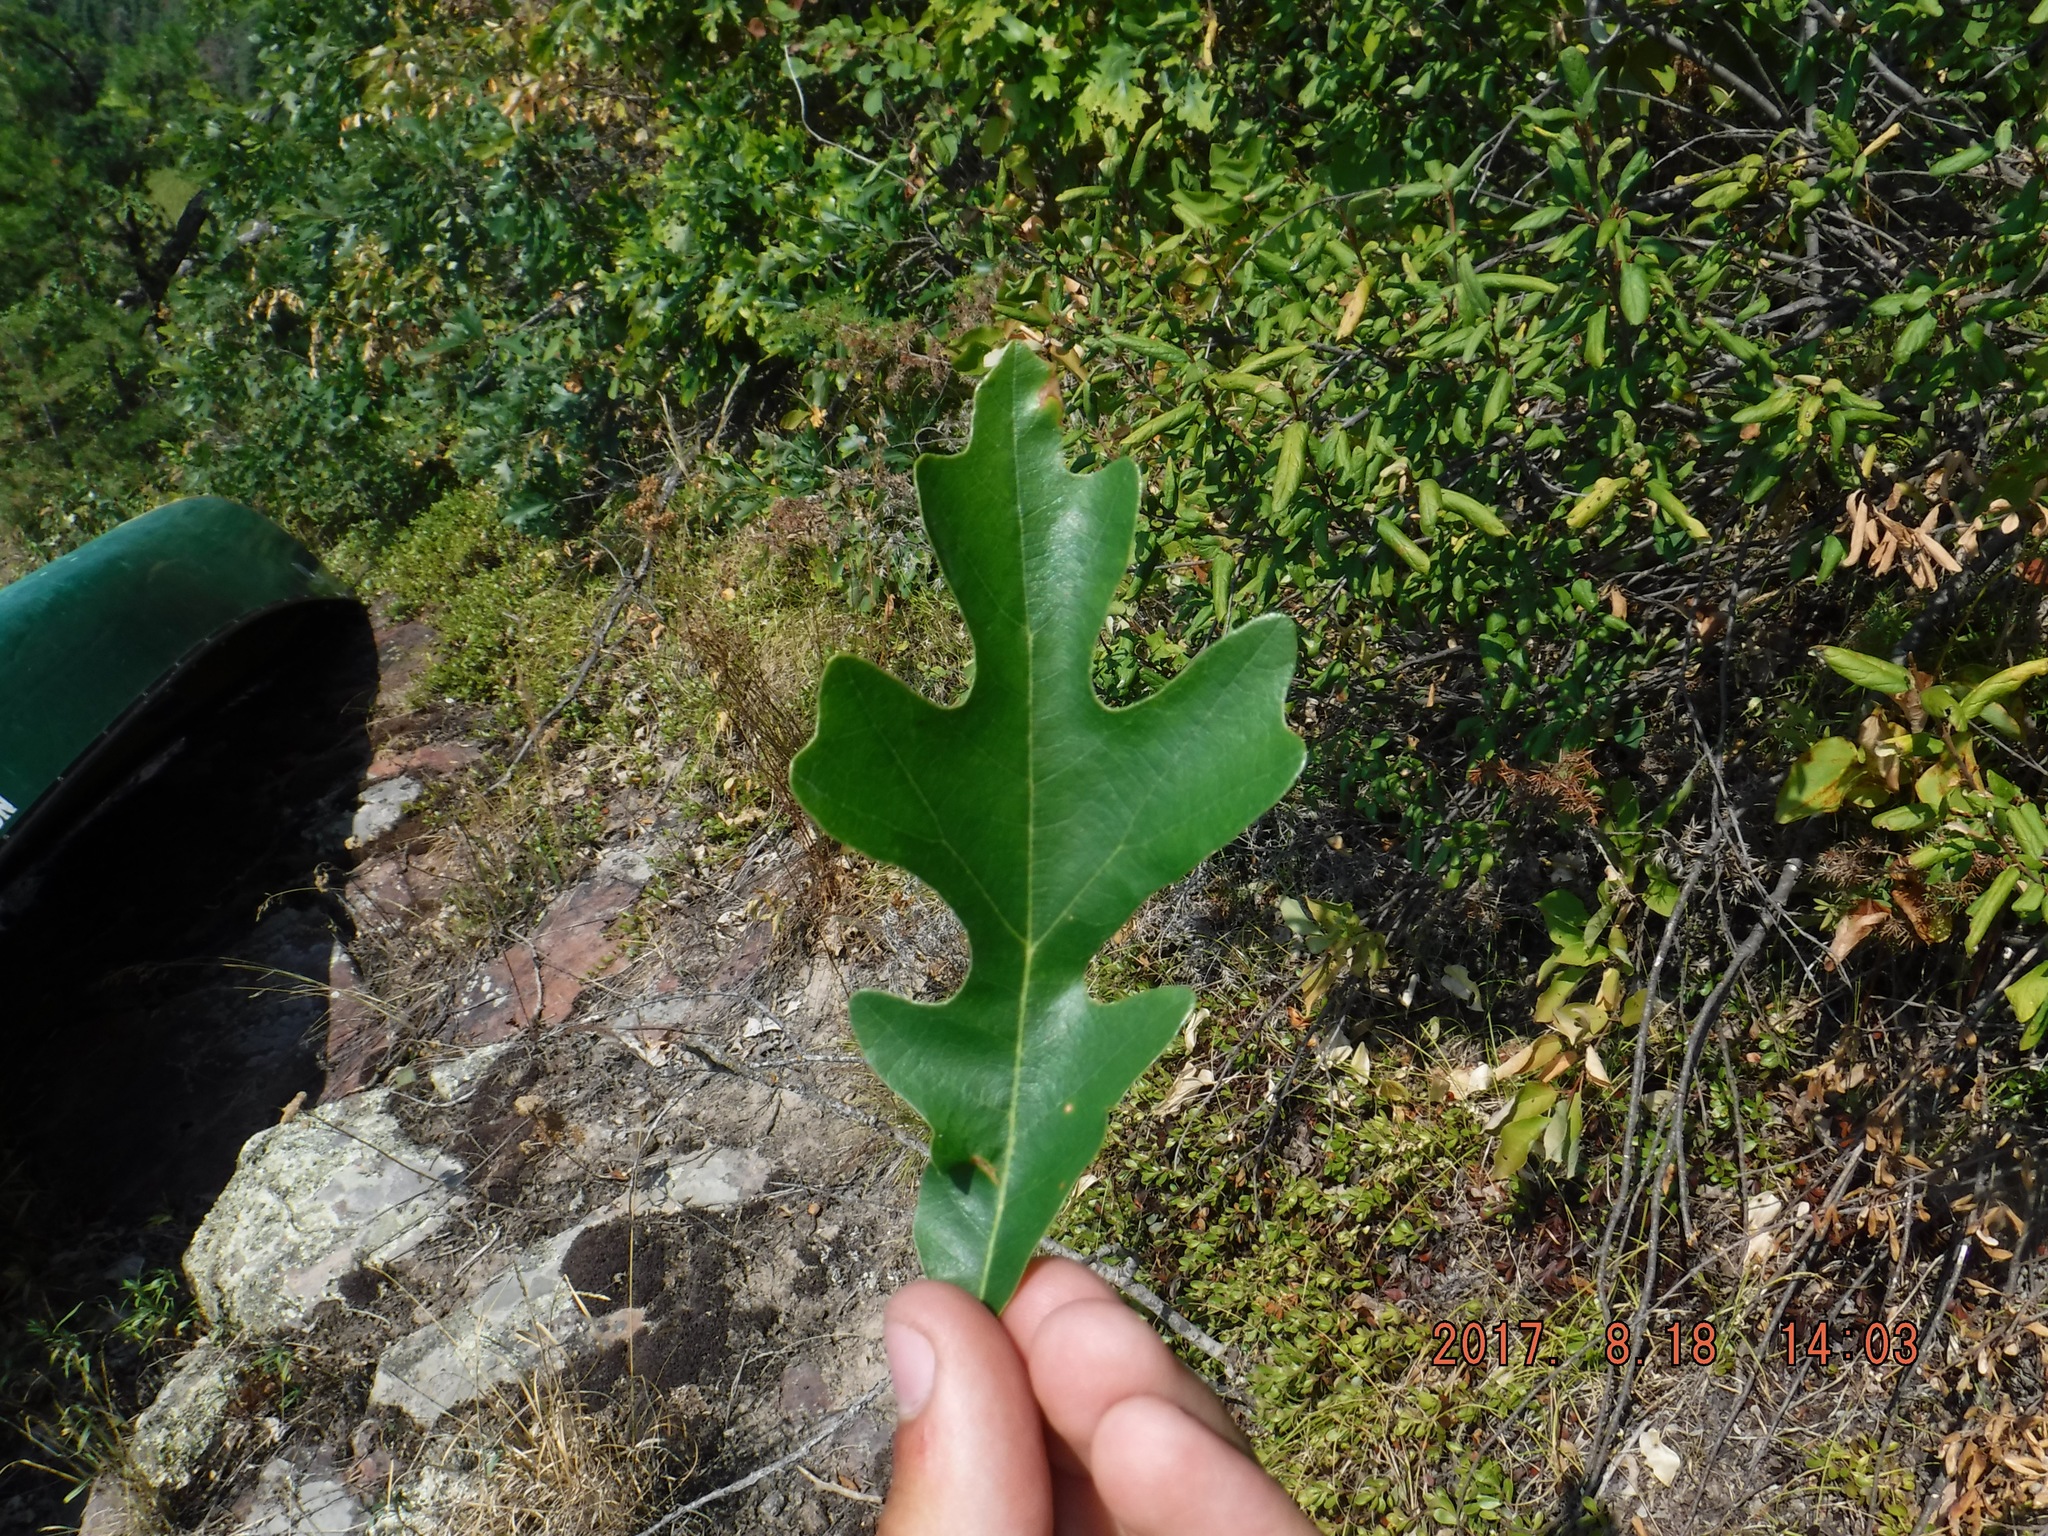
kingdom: Plantae
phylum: Tracheophyta
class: Magnoliopsida
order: Fagales
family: Fagaceae
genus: Quercus
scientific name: Quercus macrocarpa
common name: Bur oak
